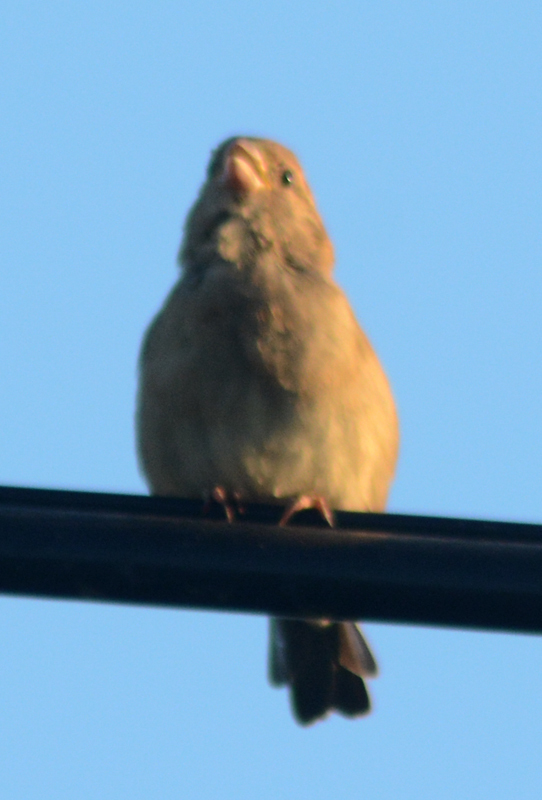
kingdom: Animalia
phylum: Chordata
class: Aves
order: Passeriformes
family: Passeridae
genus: Passer
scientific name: Passer domesticus
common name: House sparrow
